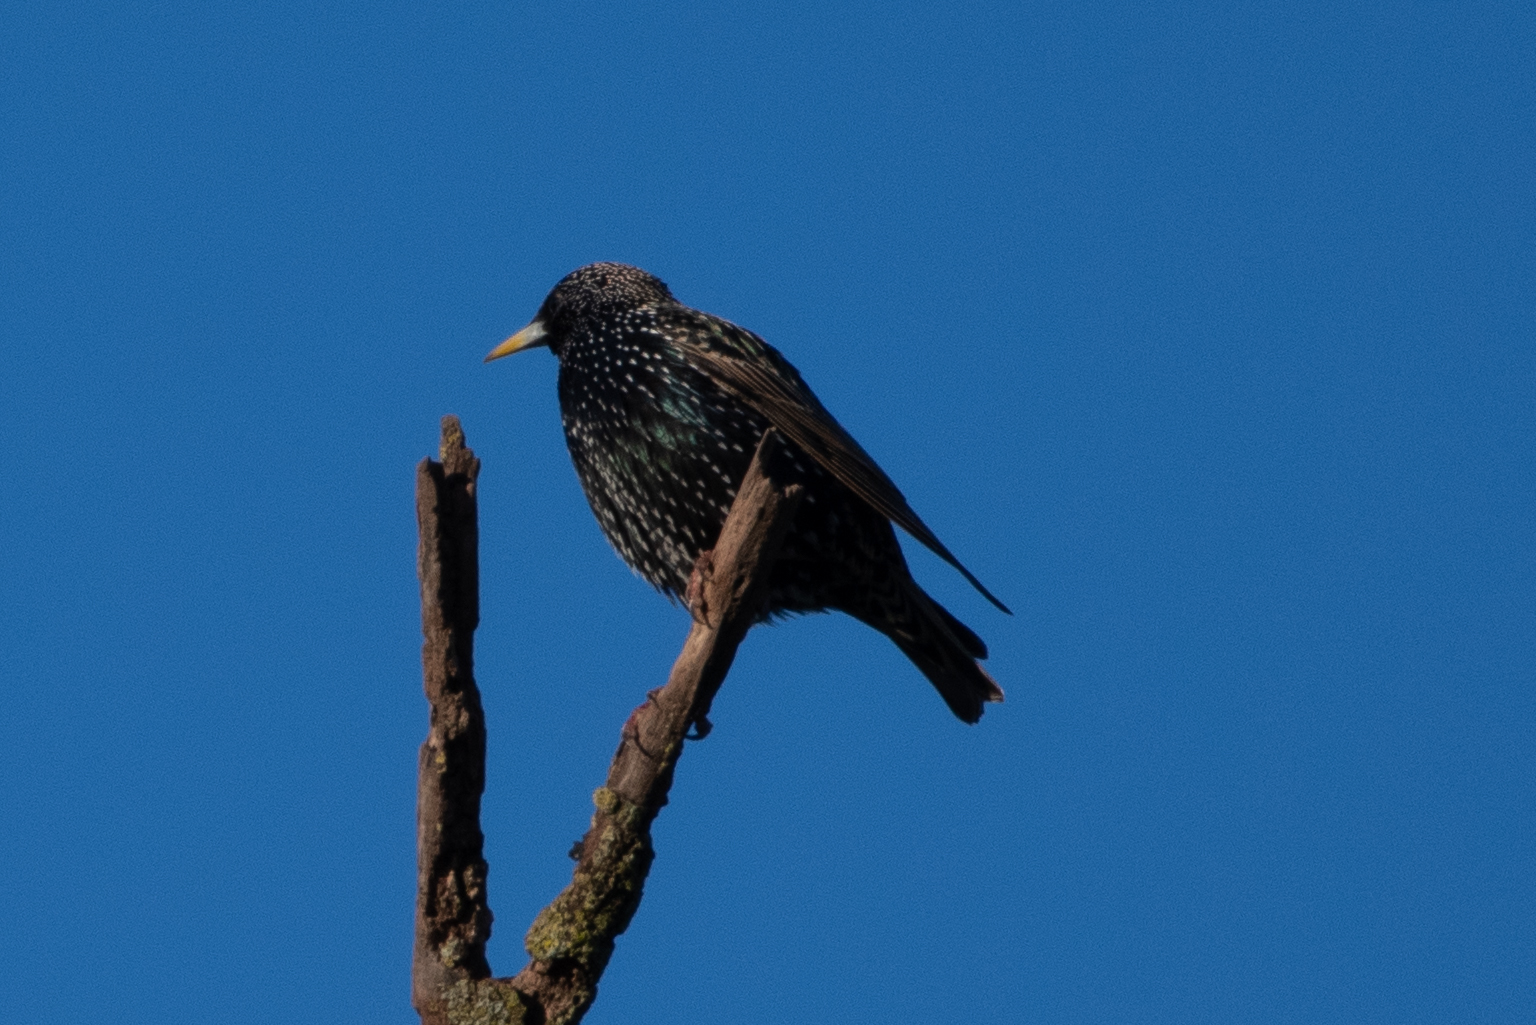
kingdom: Animalia
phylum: Chordata
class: Aves
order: Passeriformes
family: Sturnidae
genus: Sturnus
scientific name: Sturnus vulgaris
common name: Common starling
